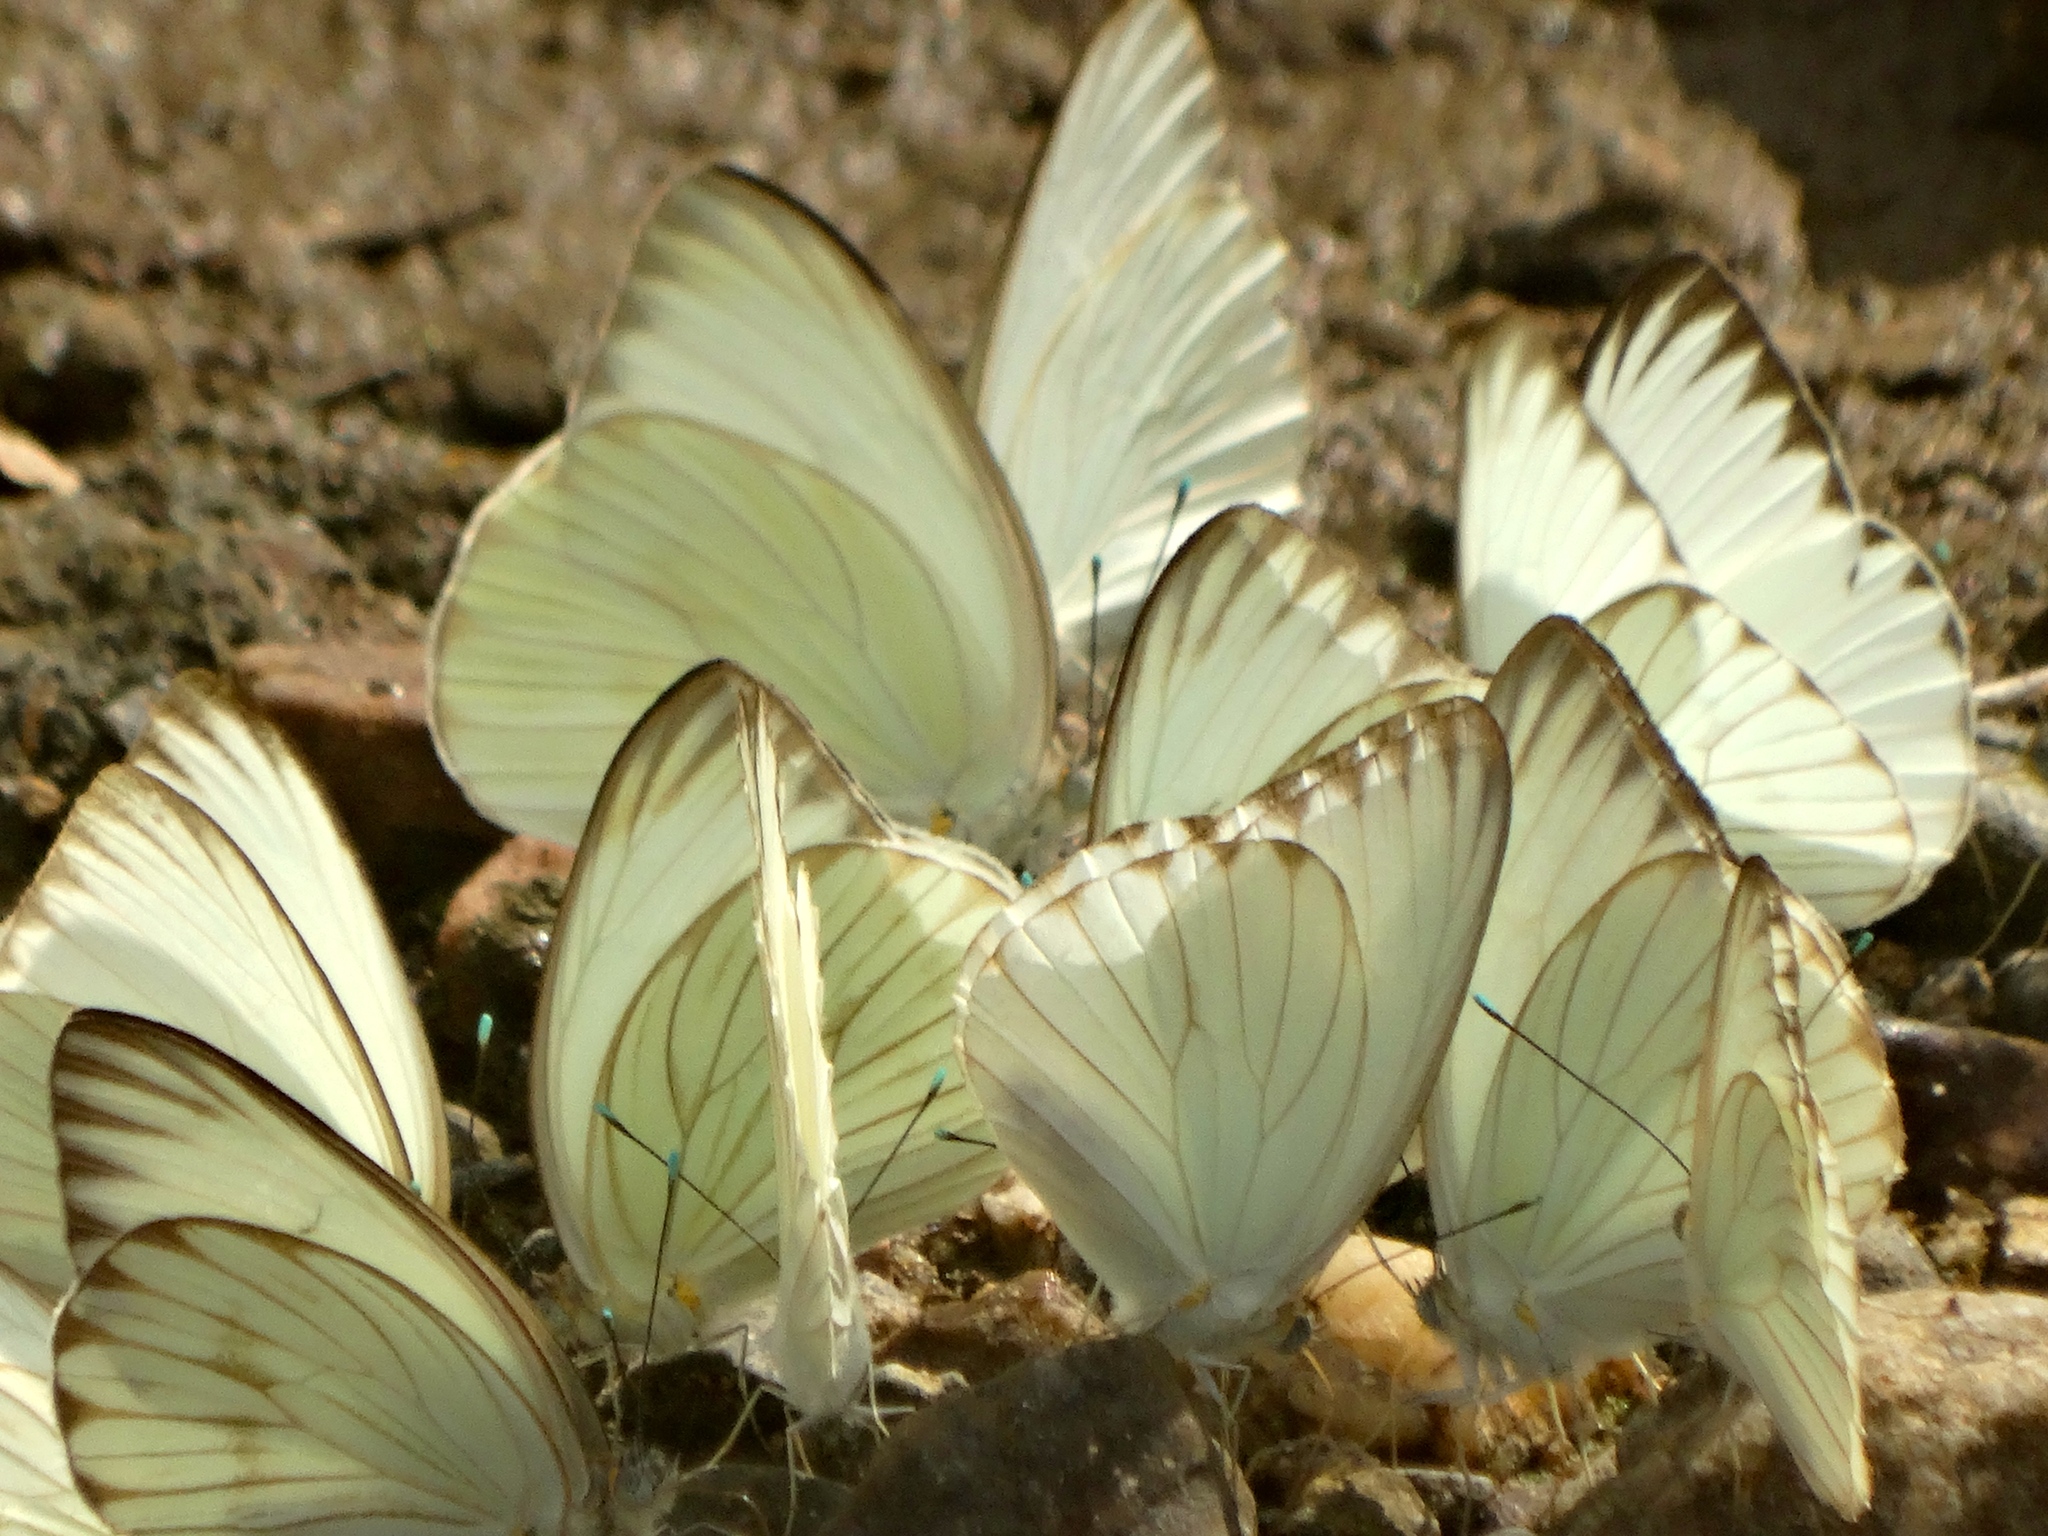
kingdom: Animalia
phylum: Arthropoda
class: Insecta
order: Lepidoptera
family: Pieridae
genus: Ascia
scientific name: Ascia monuste
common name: Great southern white
